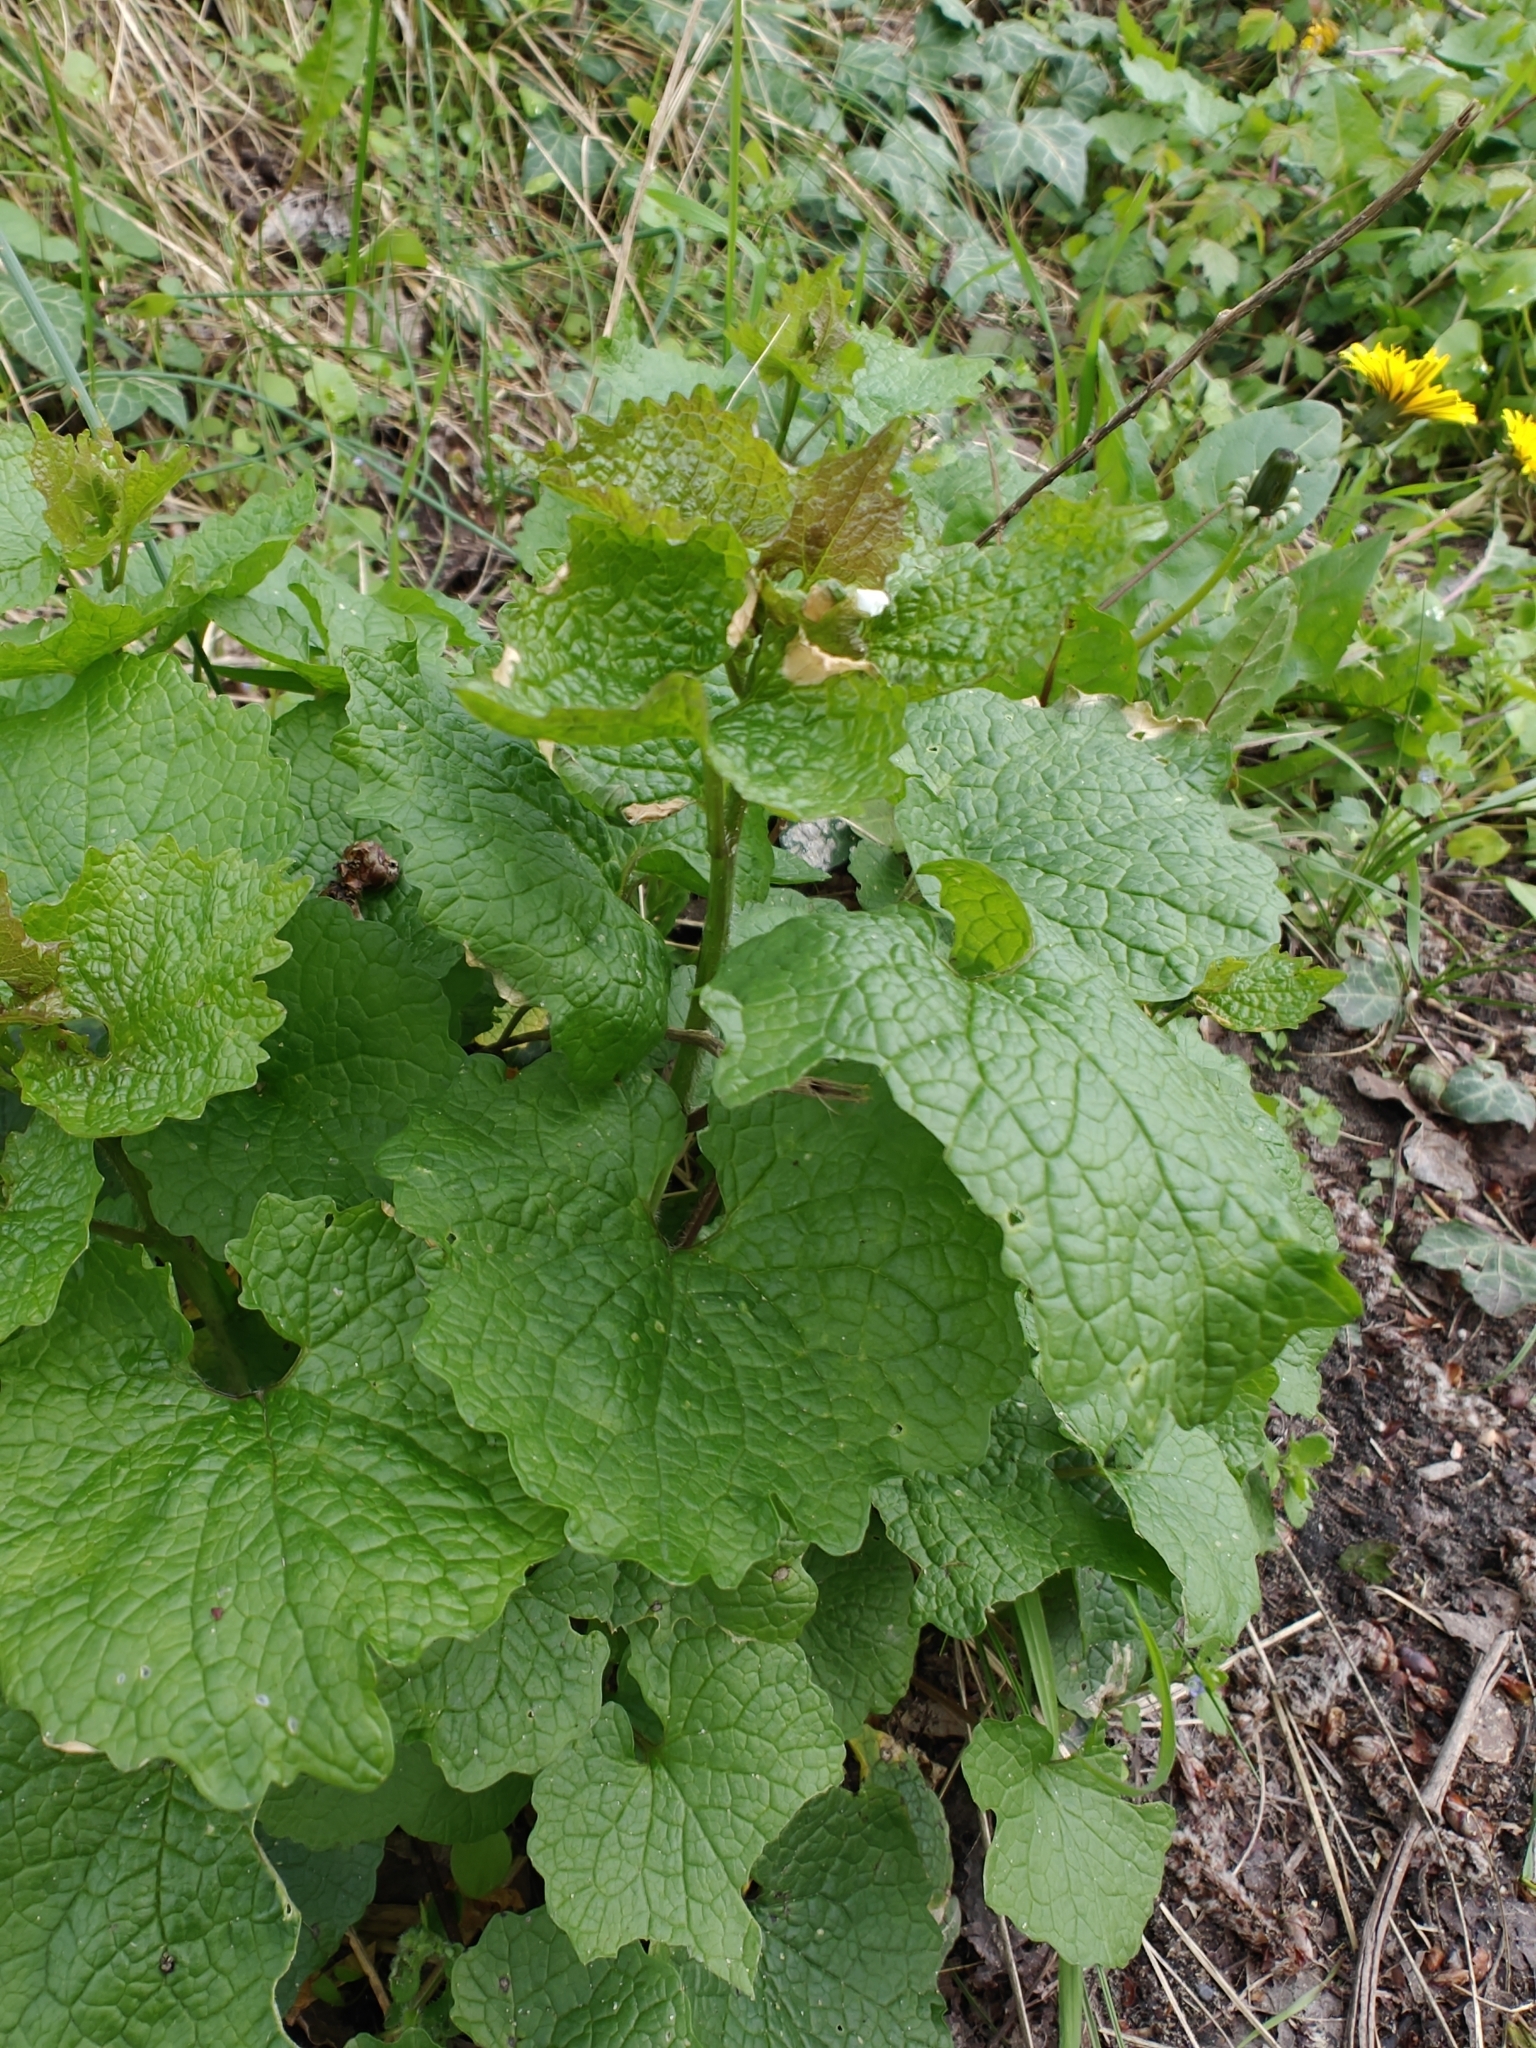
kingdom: Plantae
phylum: Tracheophyta
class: Magnoliopsida
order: Brassicales
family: Brassicaceae
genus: Alliaria
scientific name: Alliaria petiolata
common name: Garlic mustard
